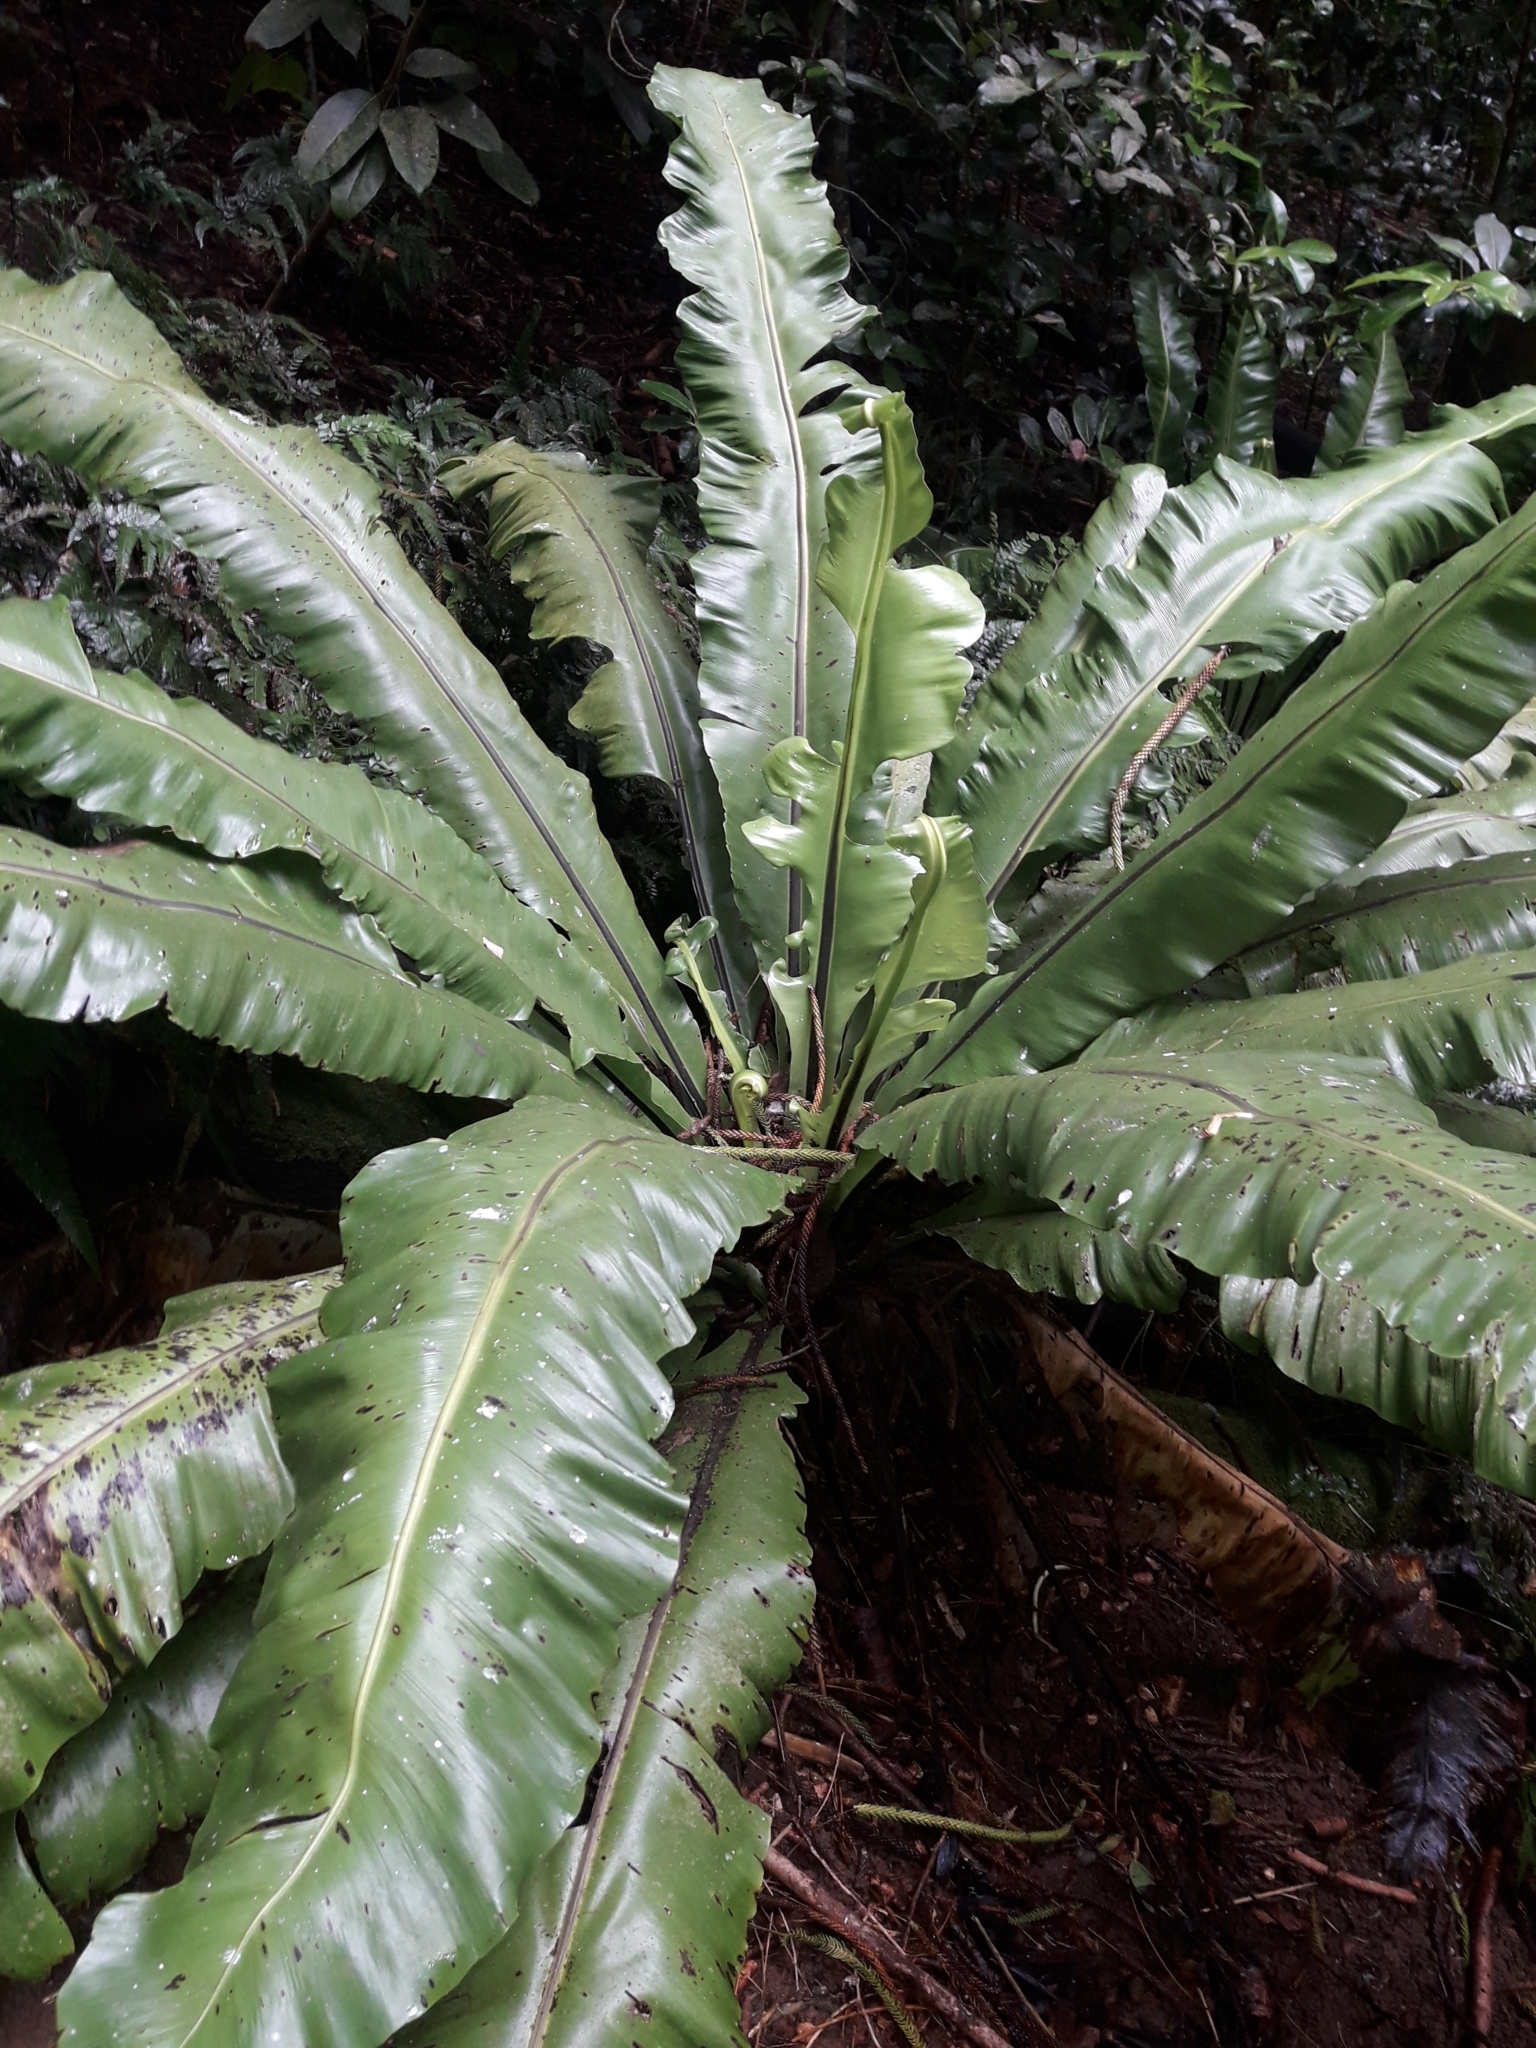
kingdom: Plantae
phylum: Tracheophyta
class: Polypodiopsida
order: Polypodiales
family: Aspleniaceae
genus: Asplenium
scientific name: Asplenium australasicum
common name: Bird's-nest fern
